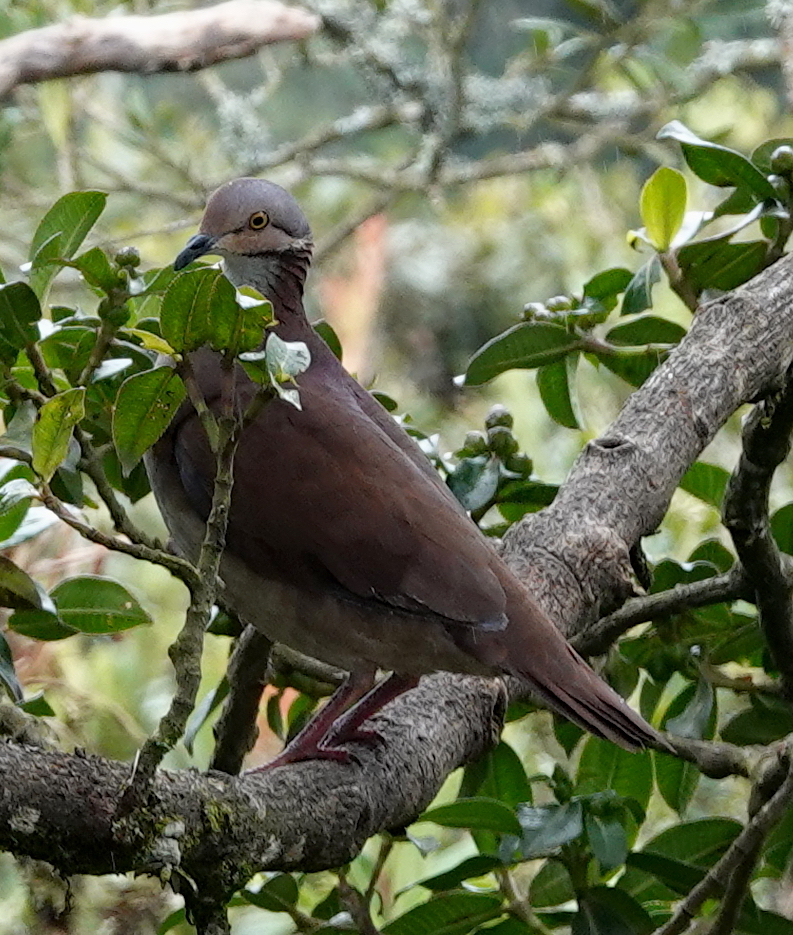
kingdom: Animalia
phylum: Chordata
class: Aves
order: Columbiformes
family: Columbidae
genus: Zentrygon
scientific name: Zentrygon frenata
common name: White-throated quail-dove
